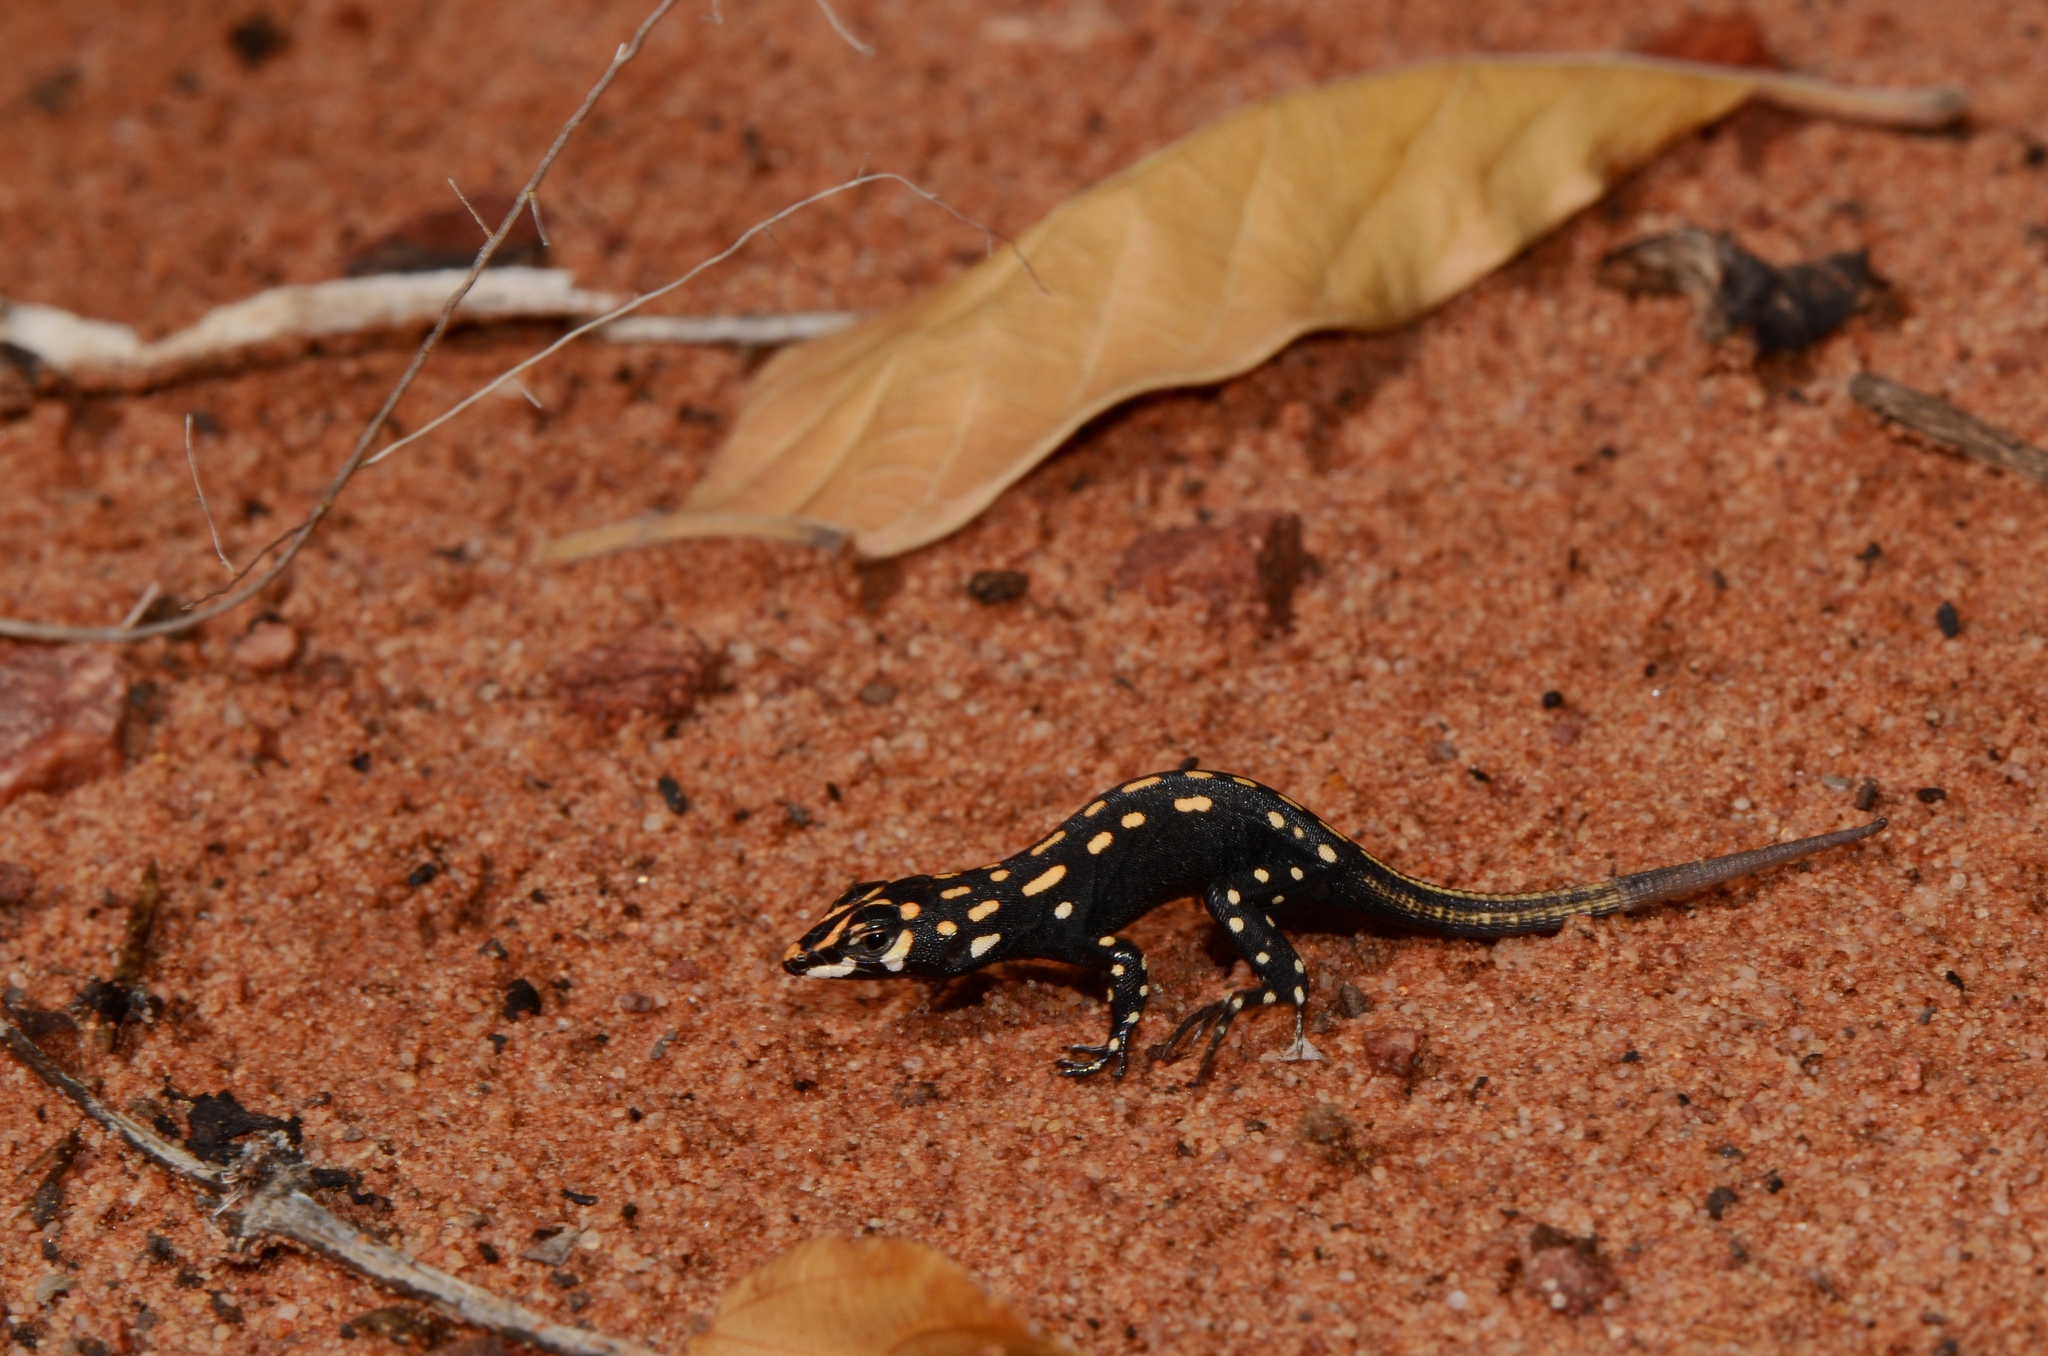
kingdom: Animalia
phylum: Chordata
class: Squamata
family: Lacertidae
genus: Heliobolus
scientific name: Heliobolus lugubris
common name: Bushveld lizard
